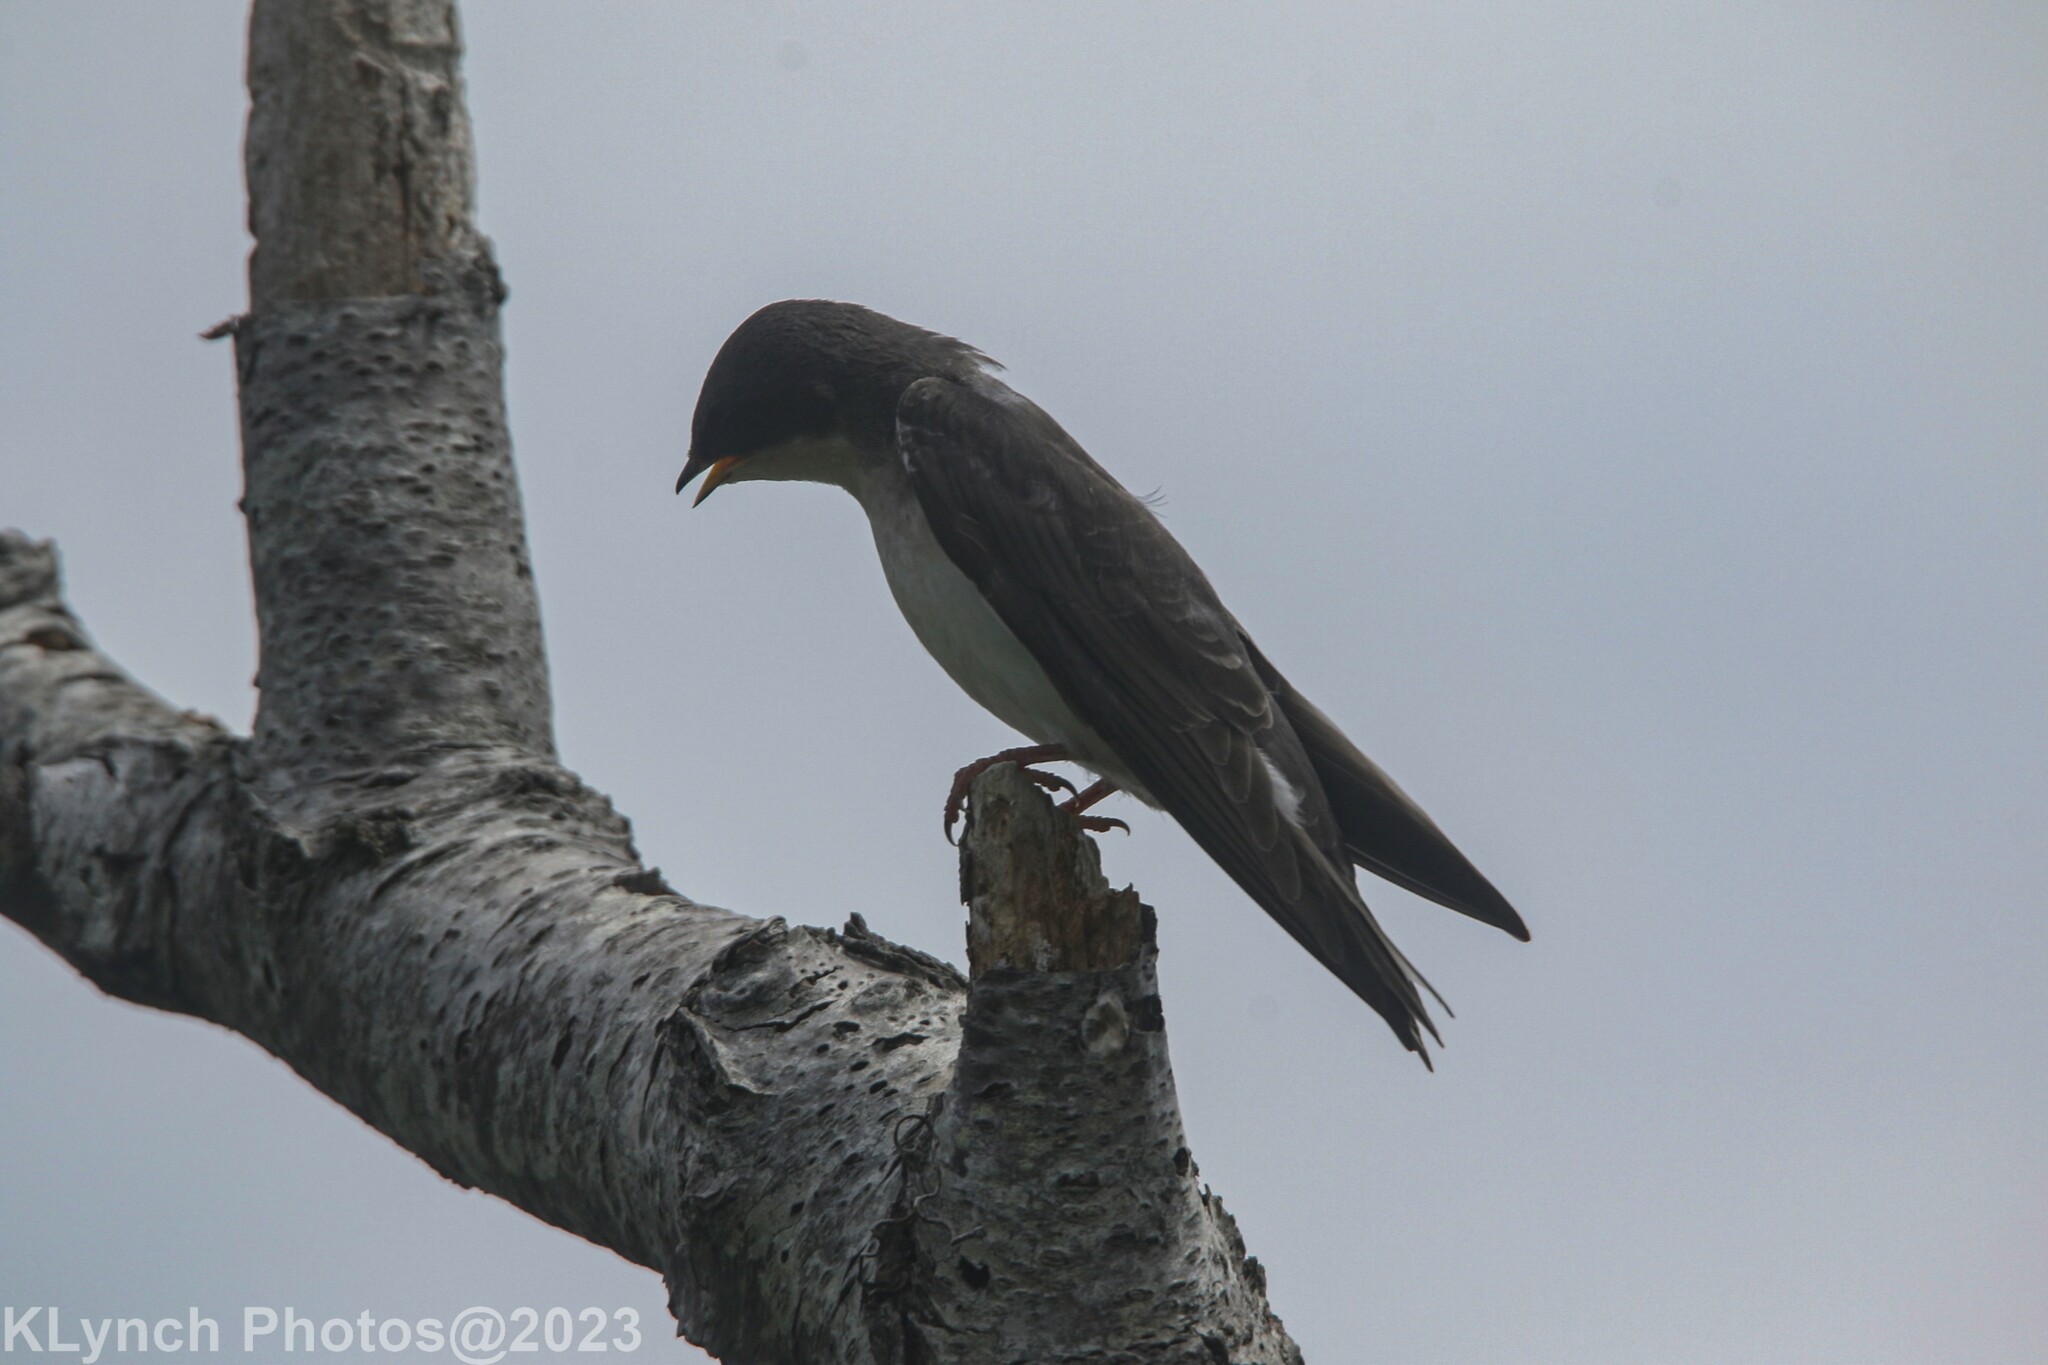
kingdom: Animalia
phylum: Chordata
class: Aves
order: Passeriformes
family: Hirundinidae
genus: Tachycineta
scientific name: Tachycineta bicolor
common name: Tree swallow
